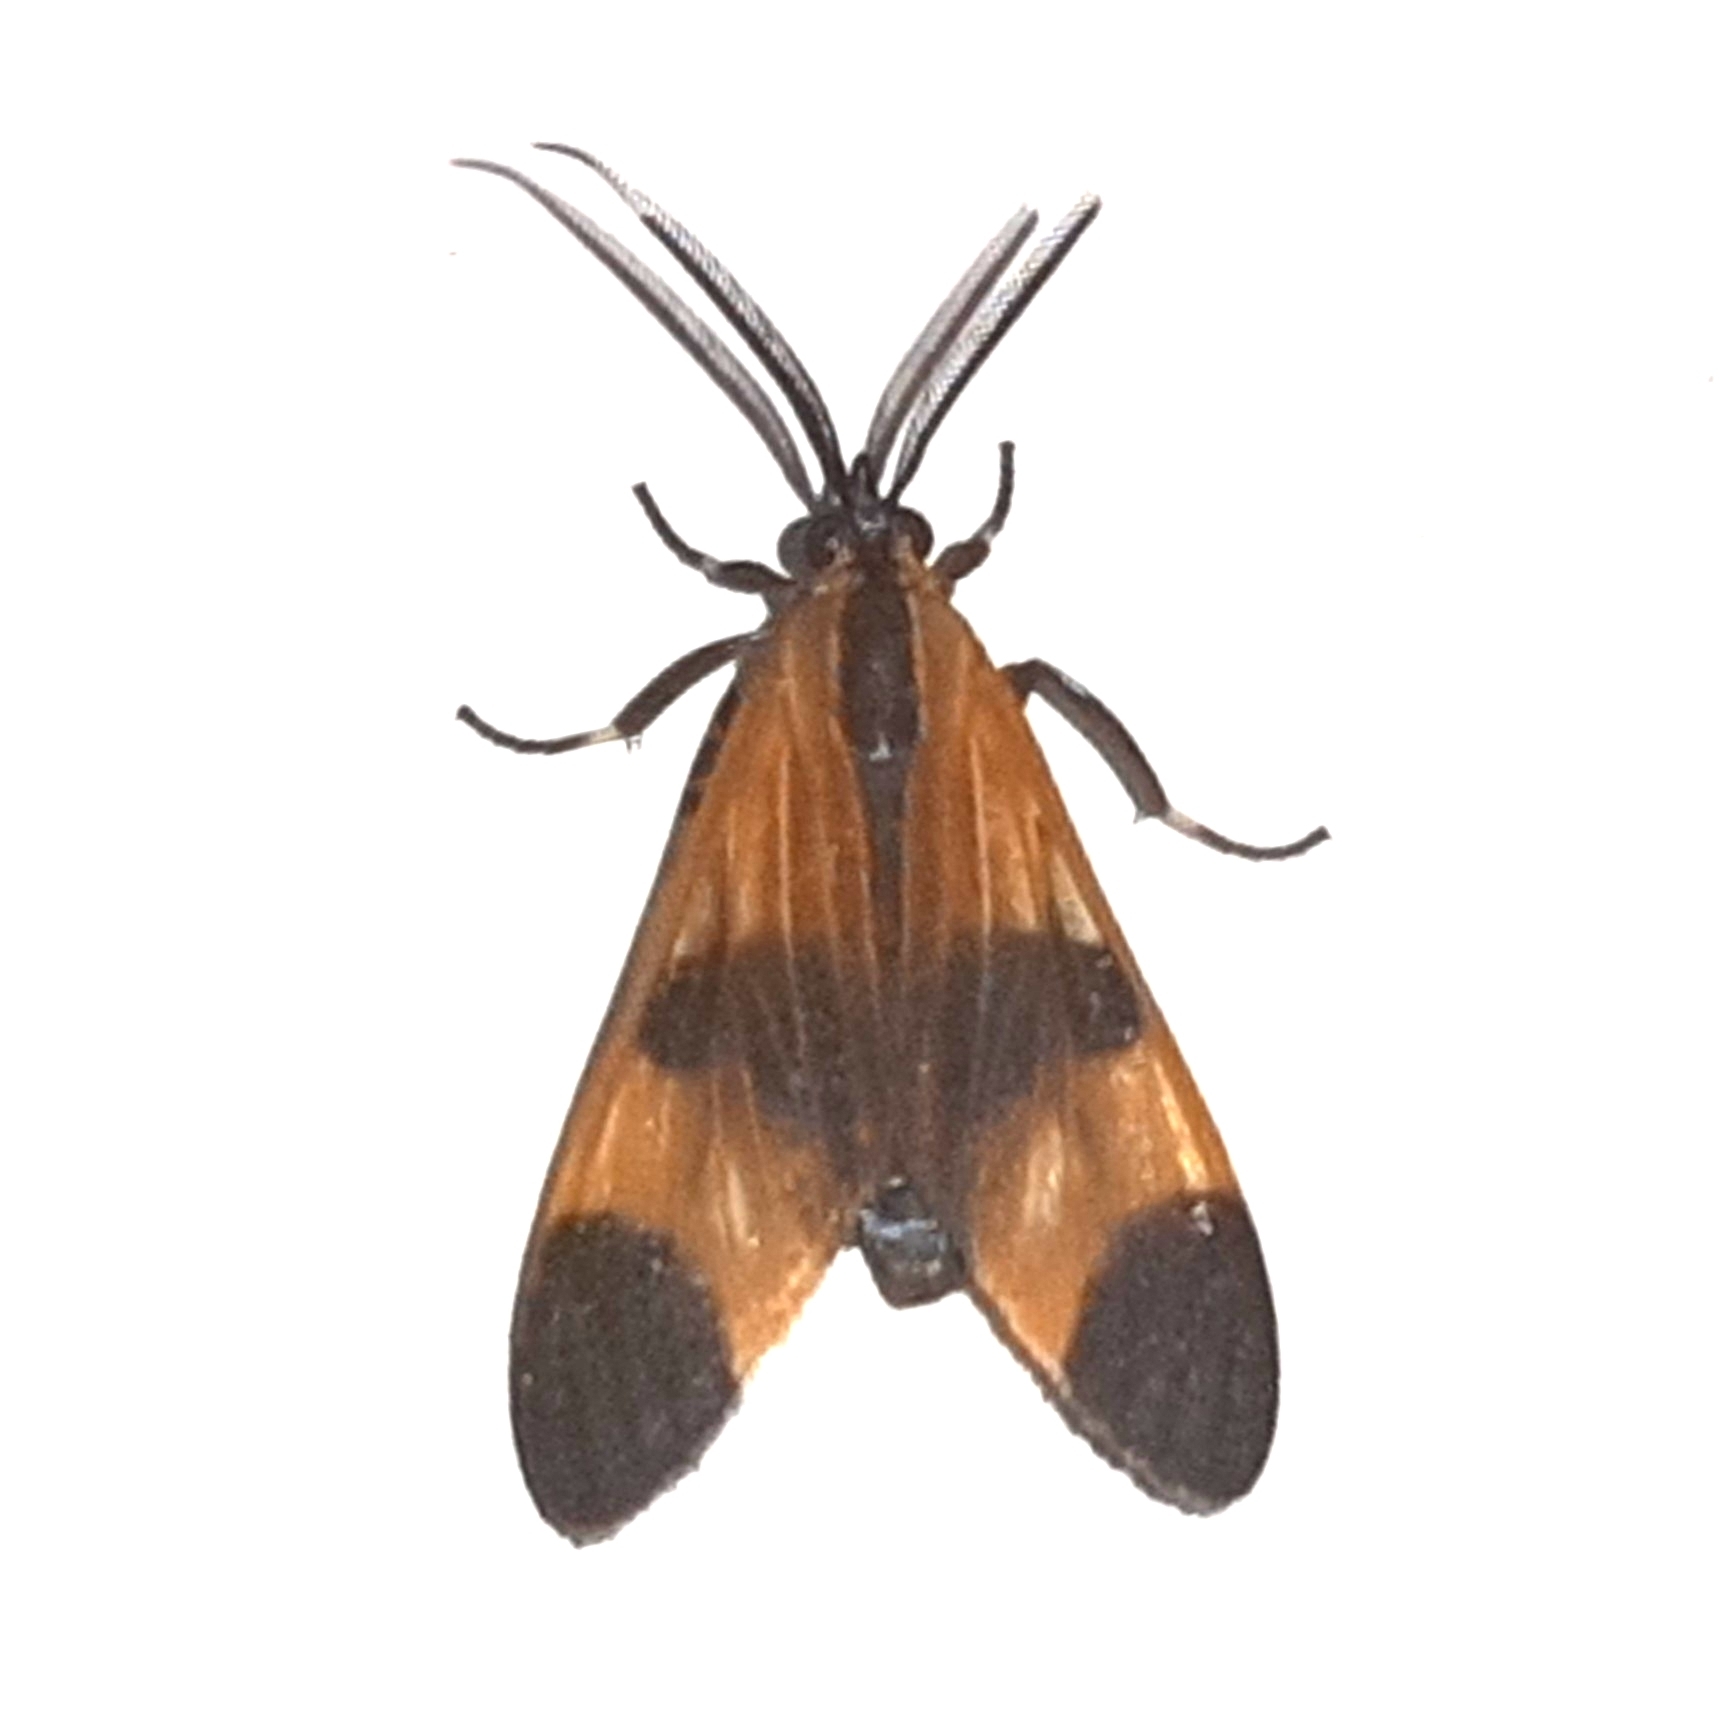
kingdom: Animalia
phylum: Arthropoda
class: Insecta
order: Lepidoptera
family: Erebidae
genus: Dycladia
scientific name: Dycladia correbioides
